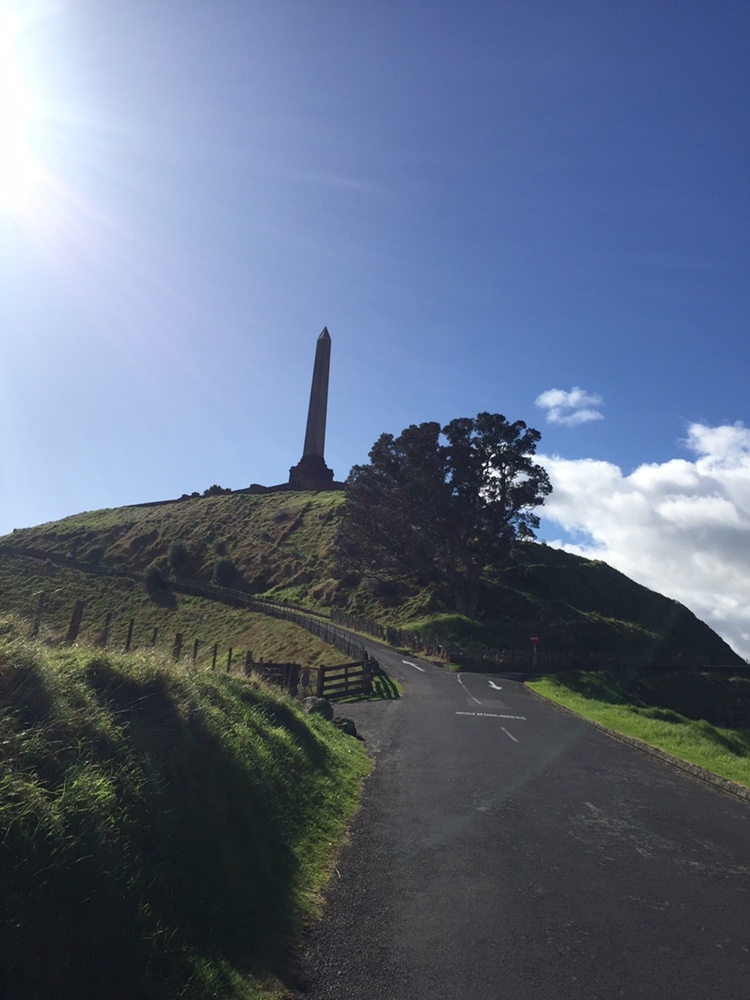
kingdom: Fungi
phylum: Ascomycota
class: Lecanoromycetes
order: Lecanorales
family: Psoraceae
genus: Protoblastenia
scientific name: Protoblastenia rupestris
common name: Chewing gum lichen
